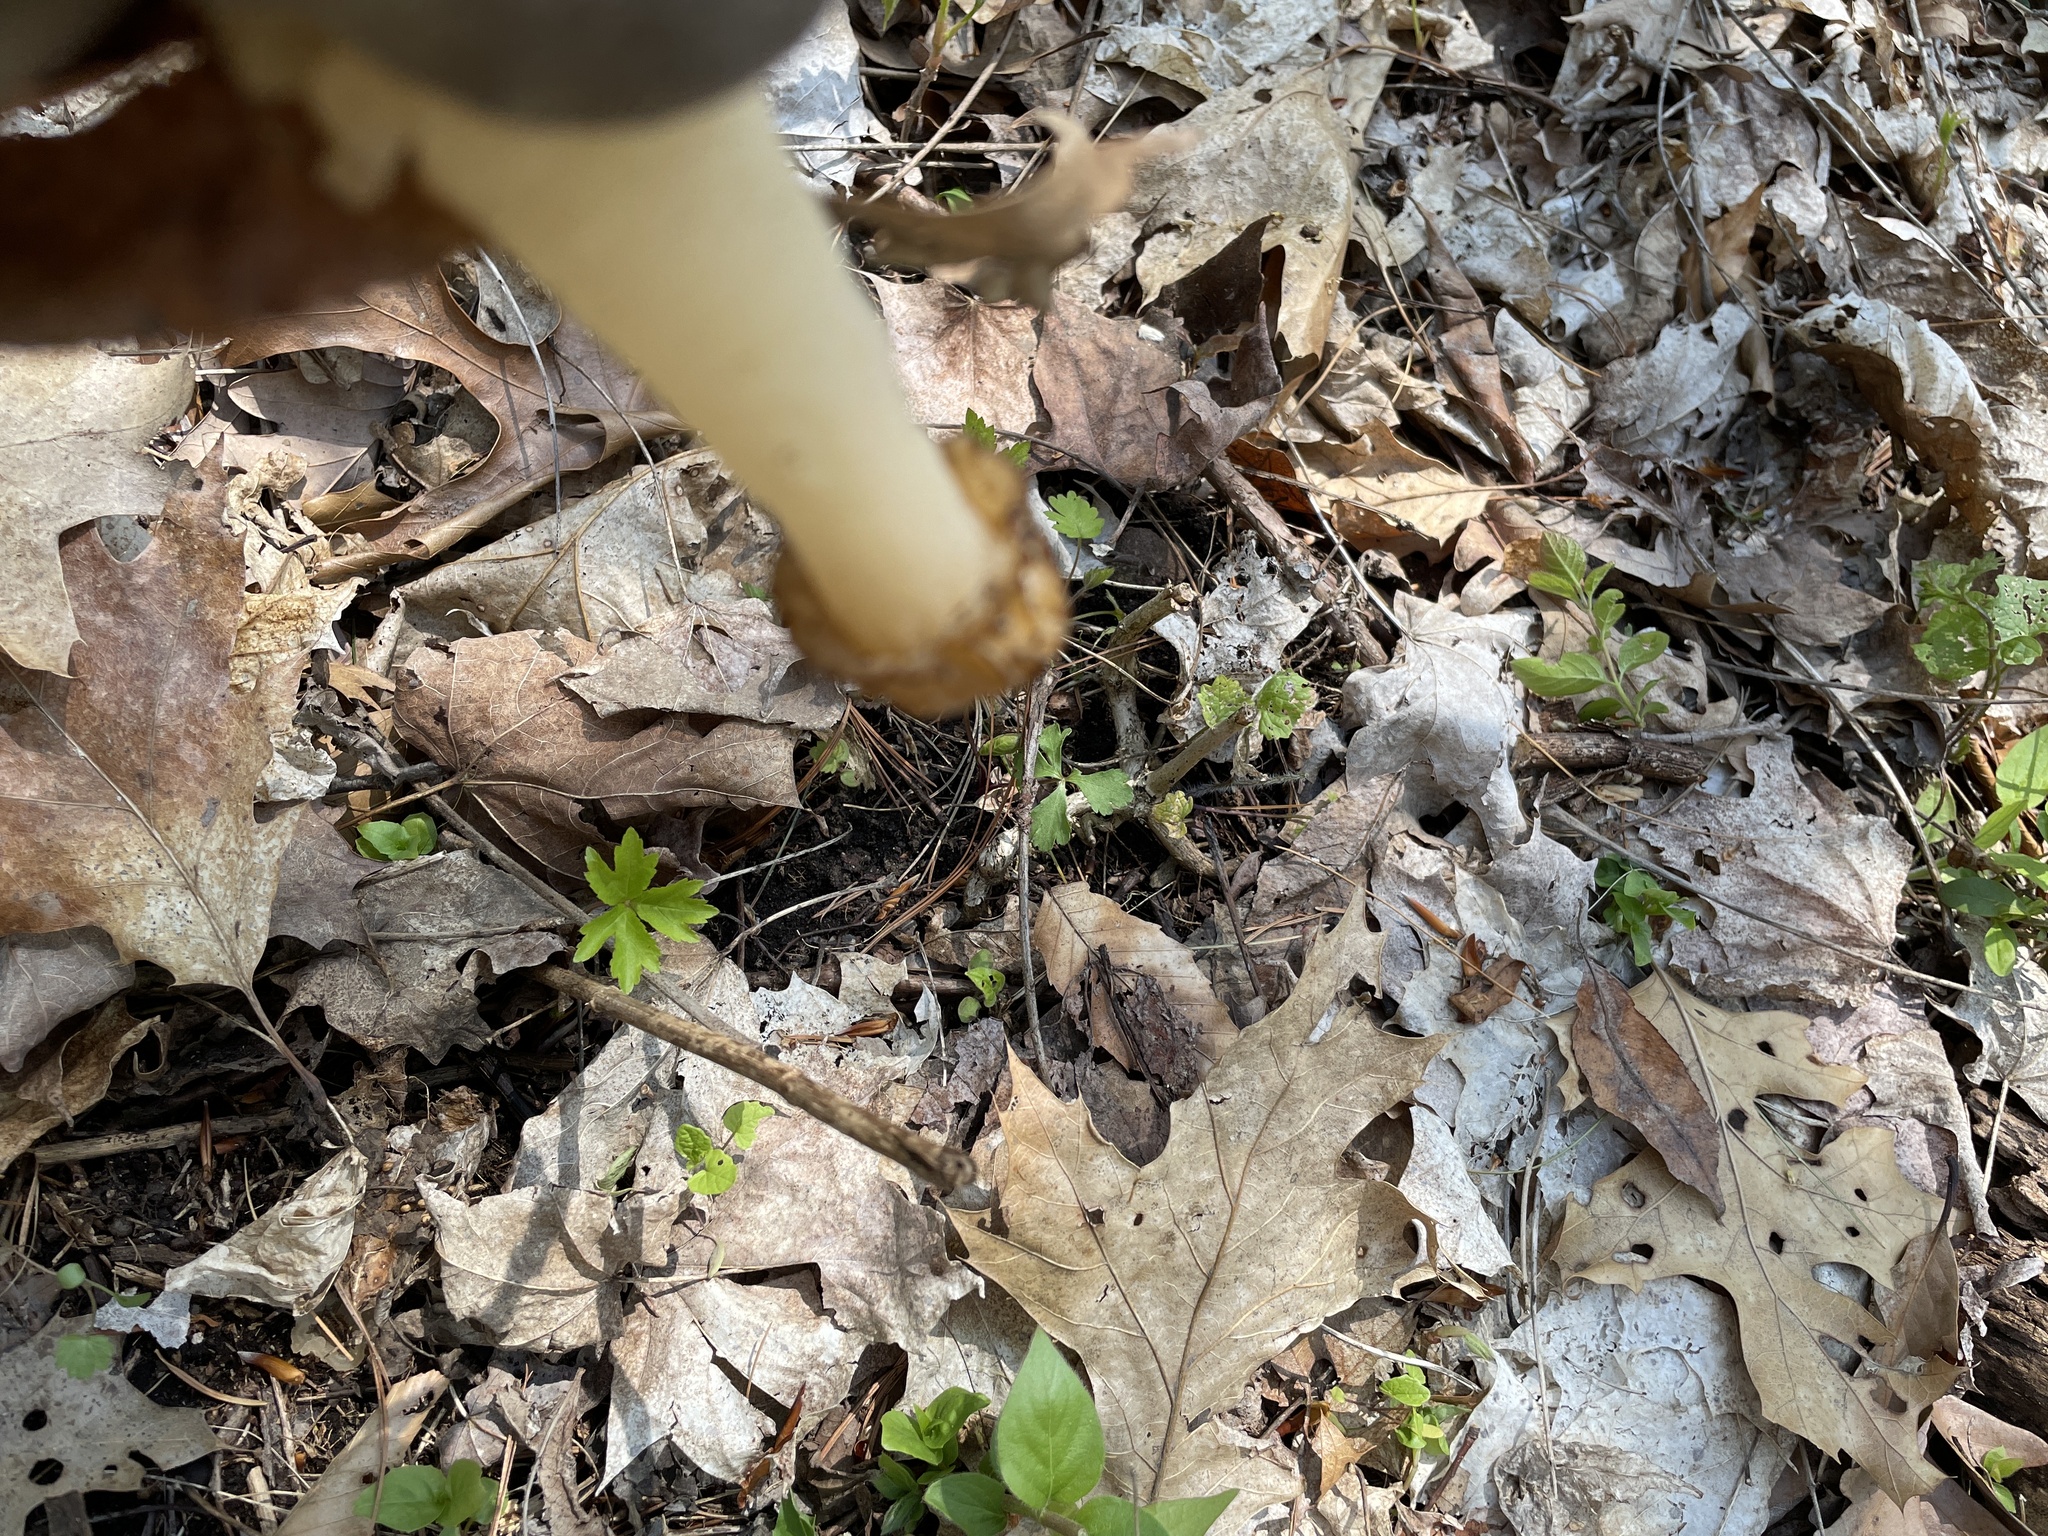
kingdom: Fungi
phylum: Ascomycota
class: Pezizomycetes
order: Pezizales
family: Morchellaceae
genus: Morchella
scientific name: Morchella punctipes
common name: Half-free morel
